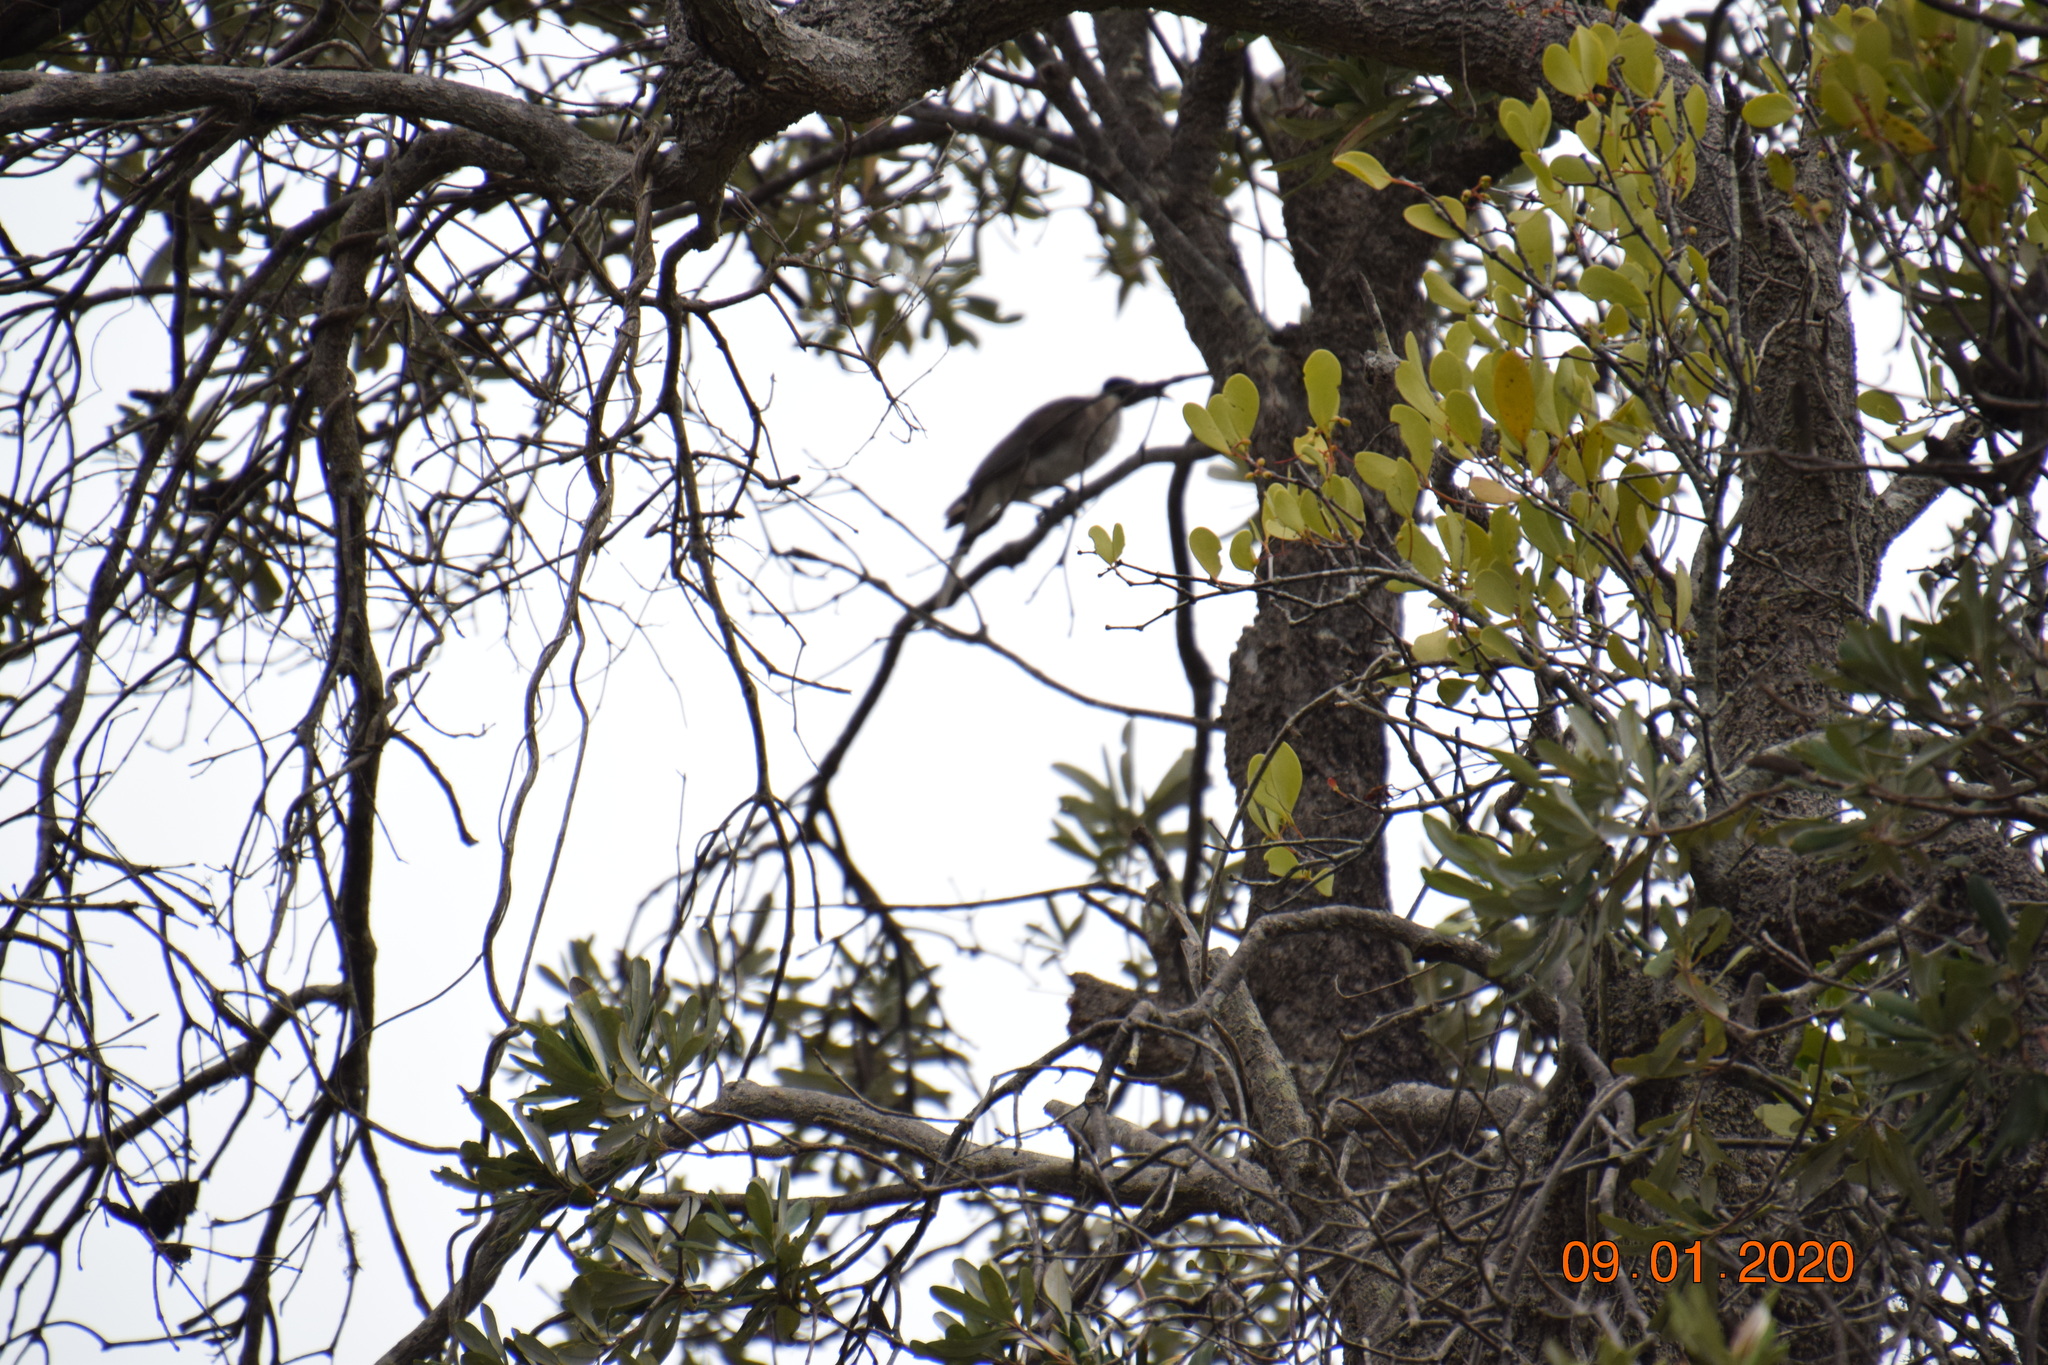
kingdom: Animalia
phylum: Chordata
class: Aves
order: Passeriformes
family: Meliphagidae
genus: Philemon
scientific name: Philemon corniculatus
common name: Noisy friarbird
